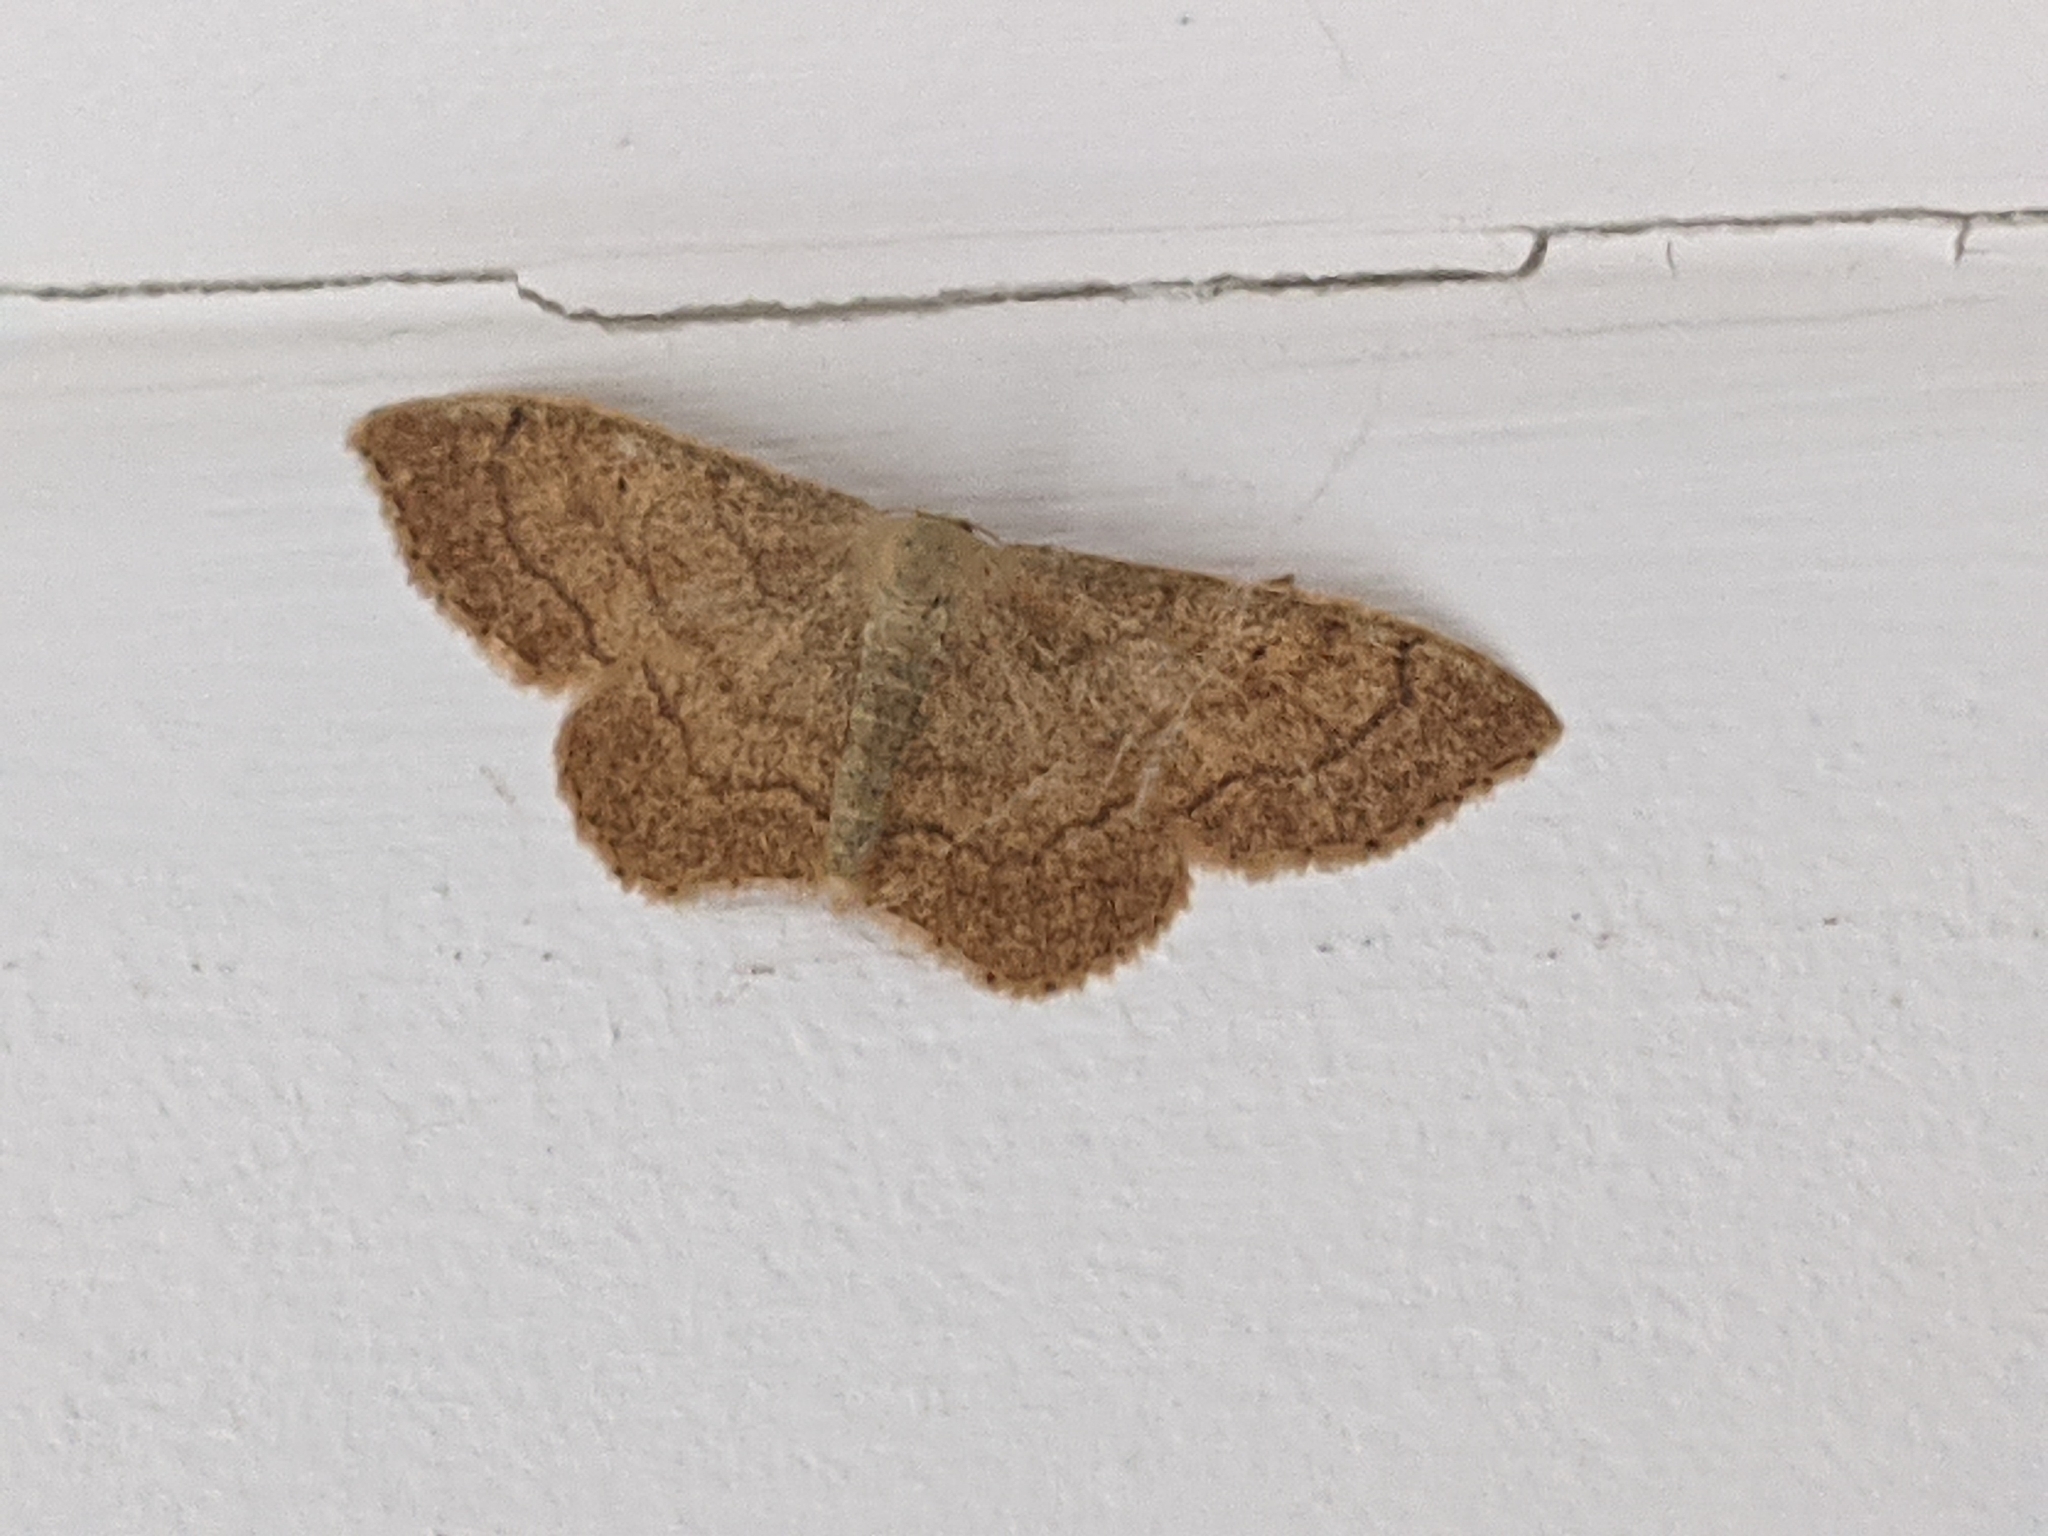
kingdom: Animalia
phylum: Arthropoda
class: Insecta
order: Lepidoptera
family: Geometridae
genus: Idaea
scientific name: Idaea aversata
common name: Riband wave
